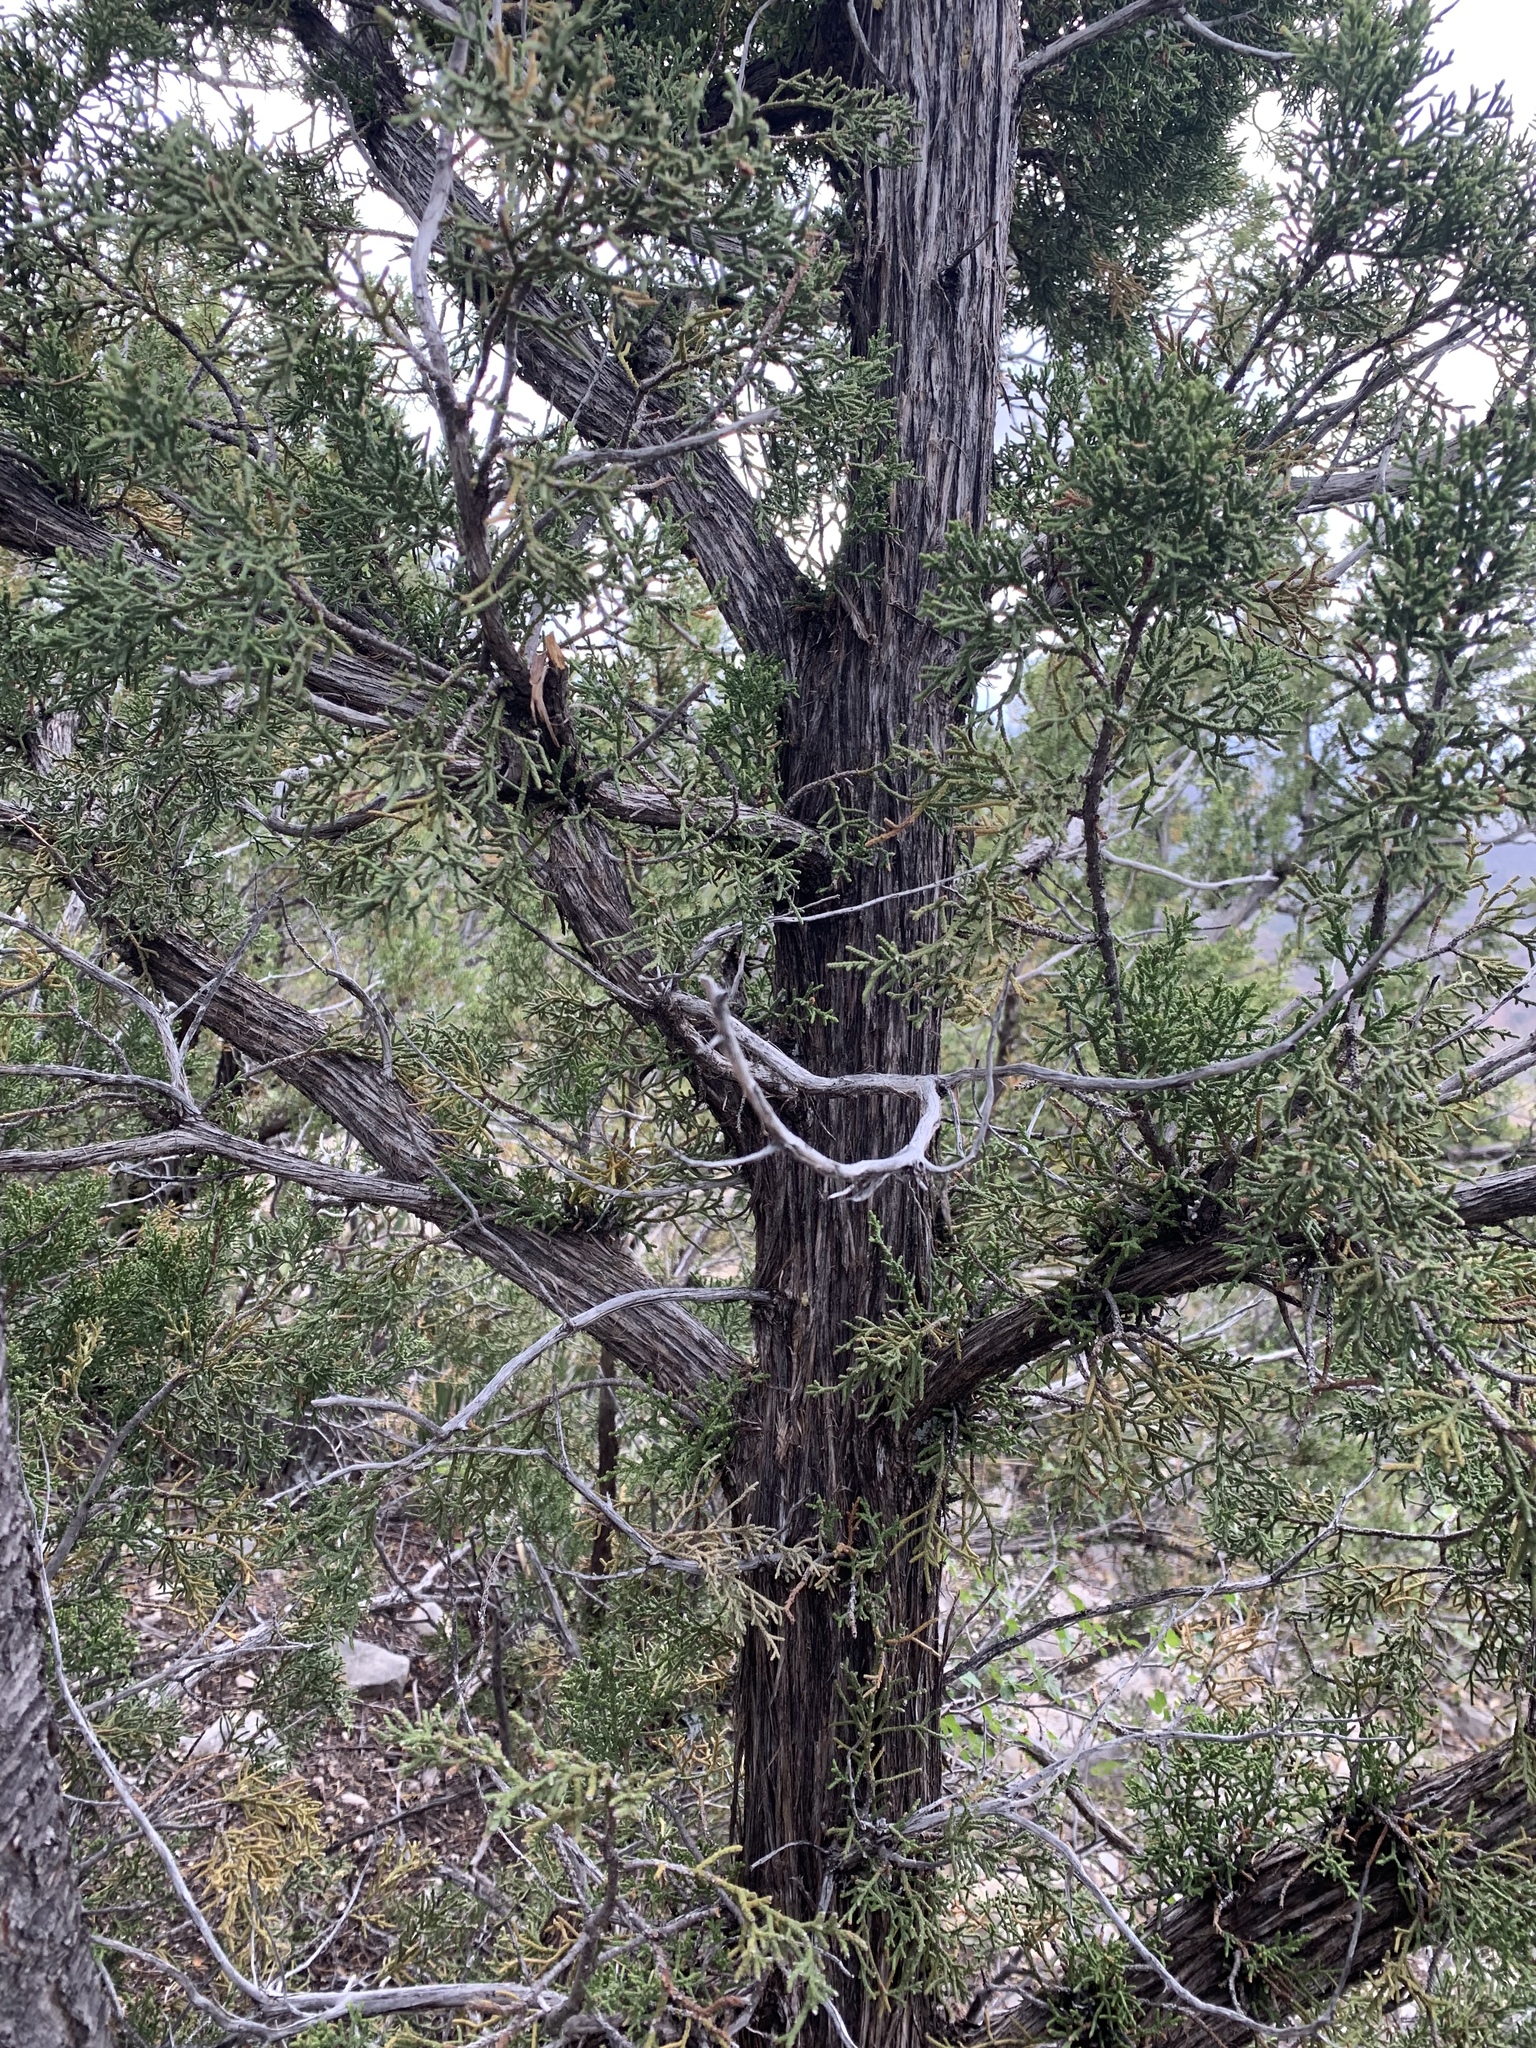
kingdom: Plantae
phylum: Tracheophyta
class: Pinopsida
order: Pinales
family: Cupressaceae
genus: Juniperus
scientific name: Juniperus monosperma
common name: One-seed juniper
